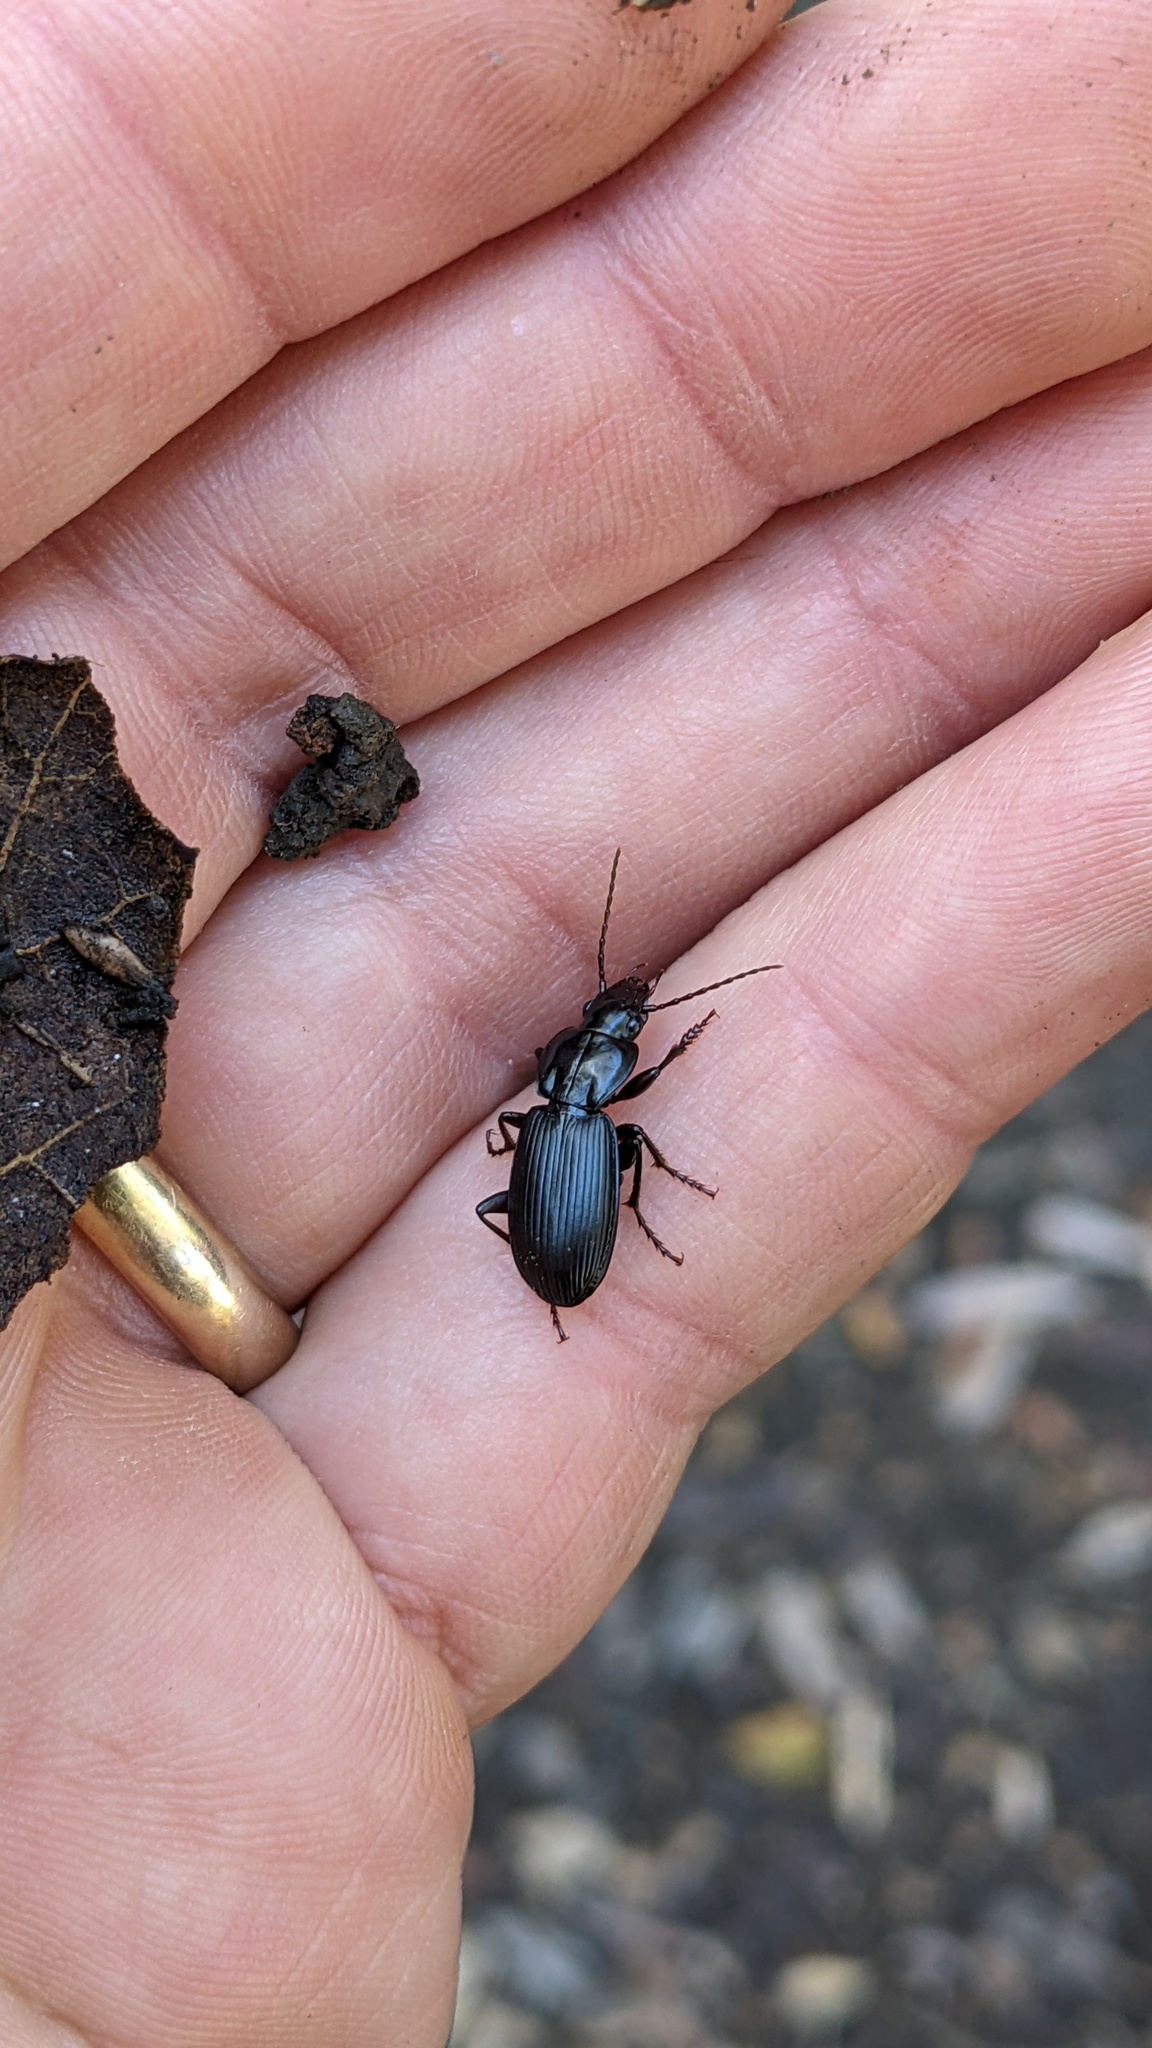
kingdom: Animalia
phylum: Arthropoda
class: Insecta
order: Coleoptera
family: Carabidae
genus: Laemostenus
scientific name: Laemostenus complanatus
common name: Cosmopolitan ground beetle
